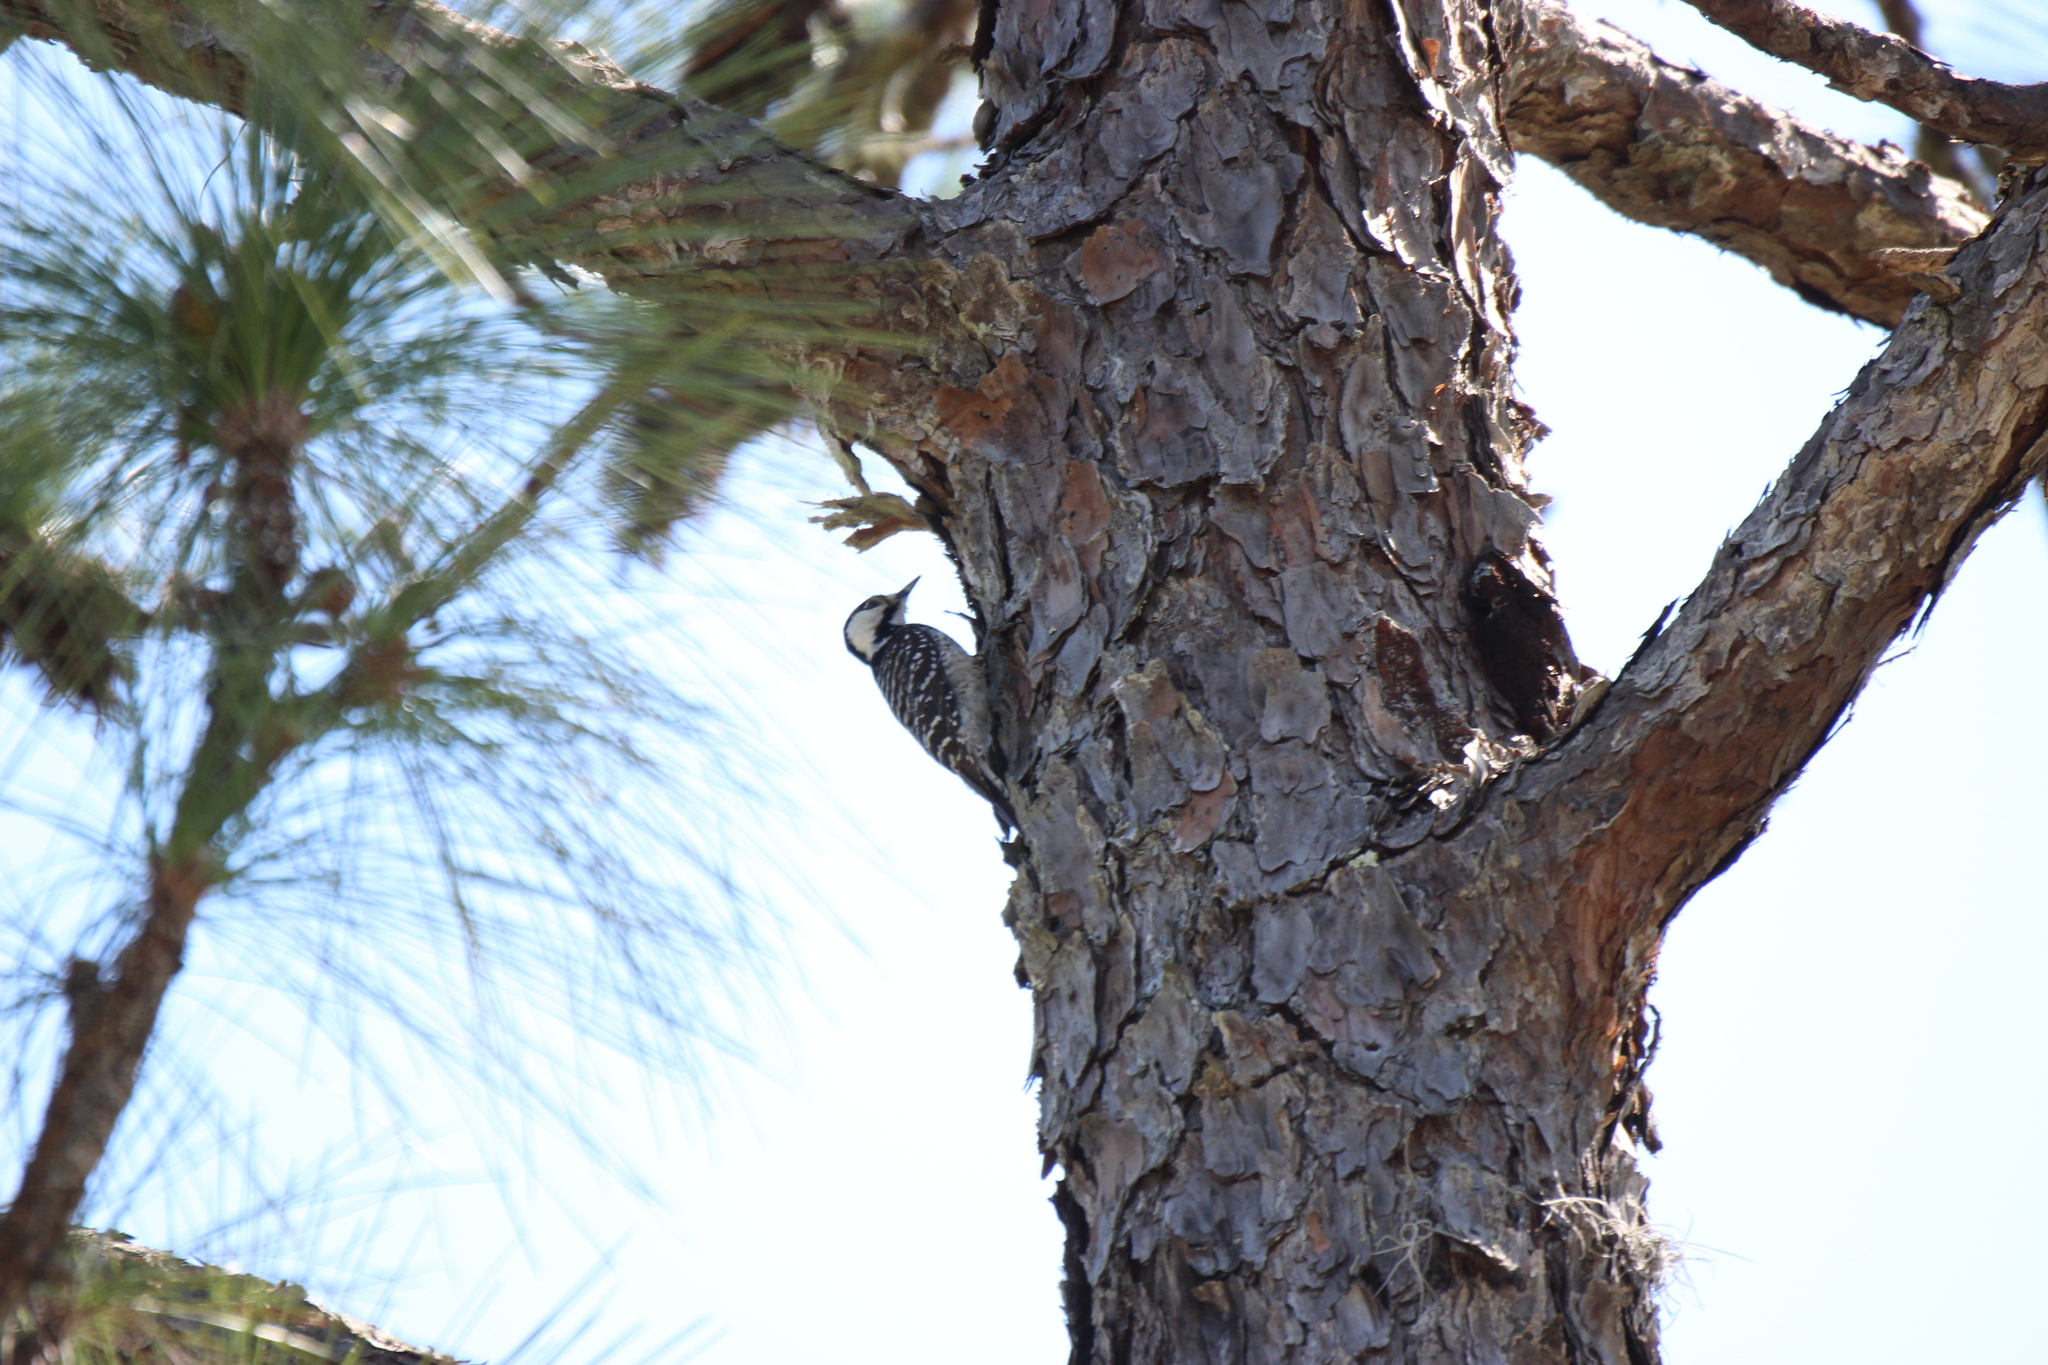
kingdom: Animalia
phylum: Chordata
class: Aves
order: Piciformes
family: Picidae
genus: Leuconotopicus
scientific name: Leuconotopicus borealis
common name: Red-cockaded woodpecker
